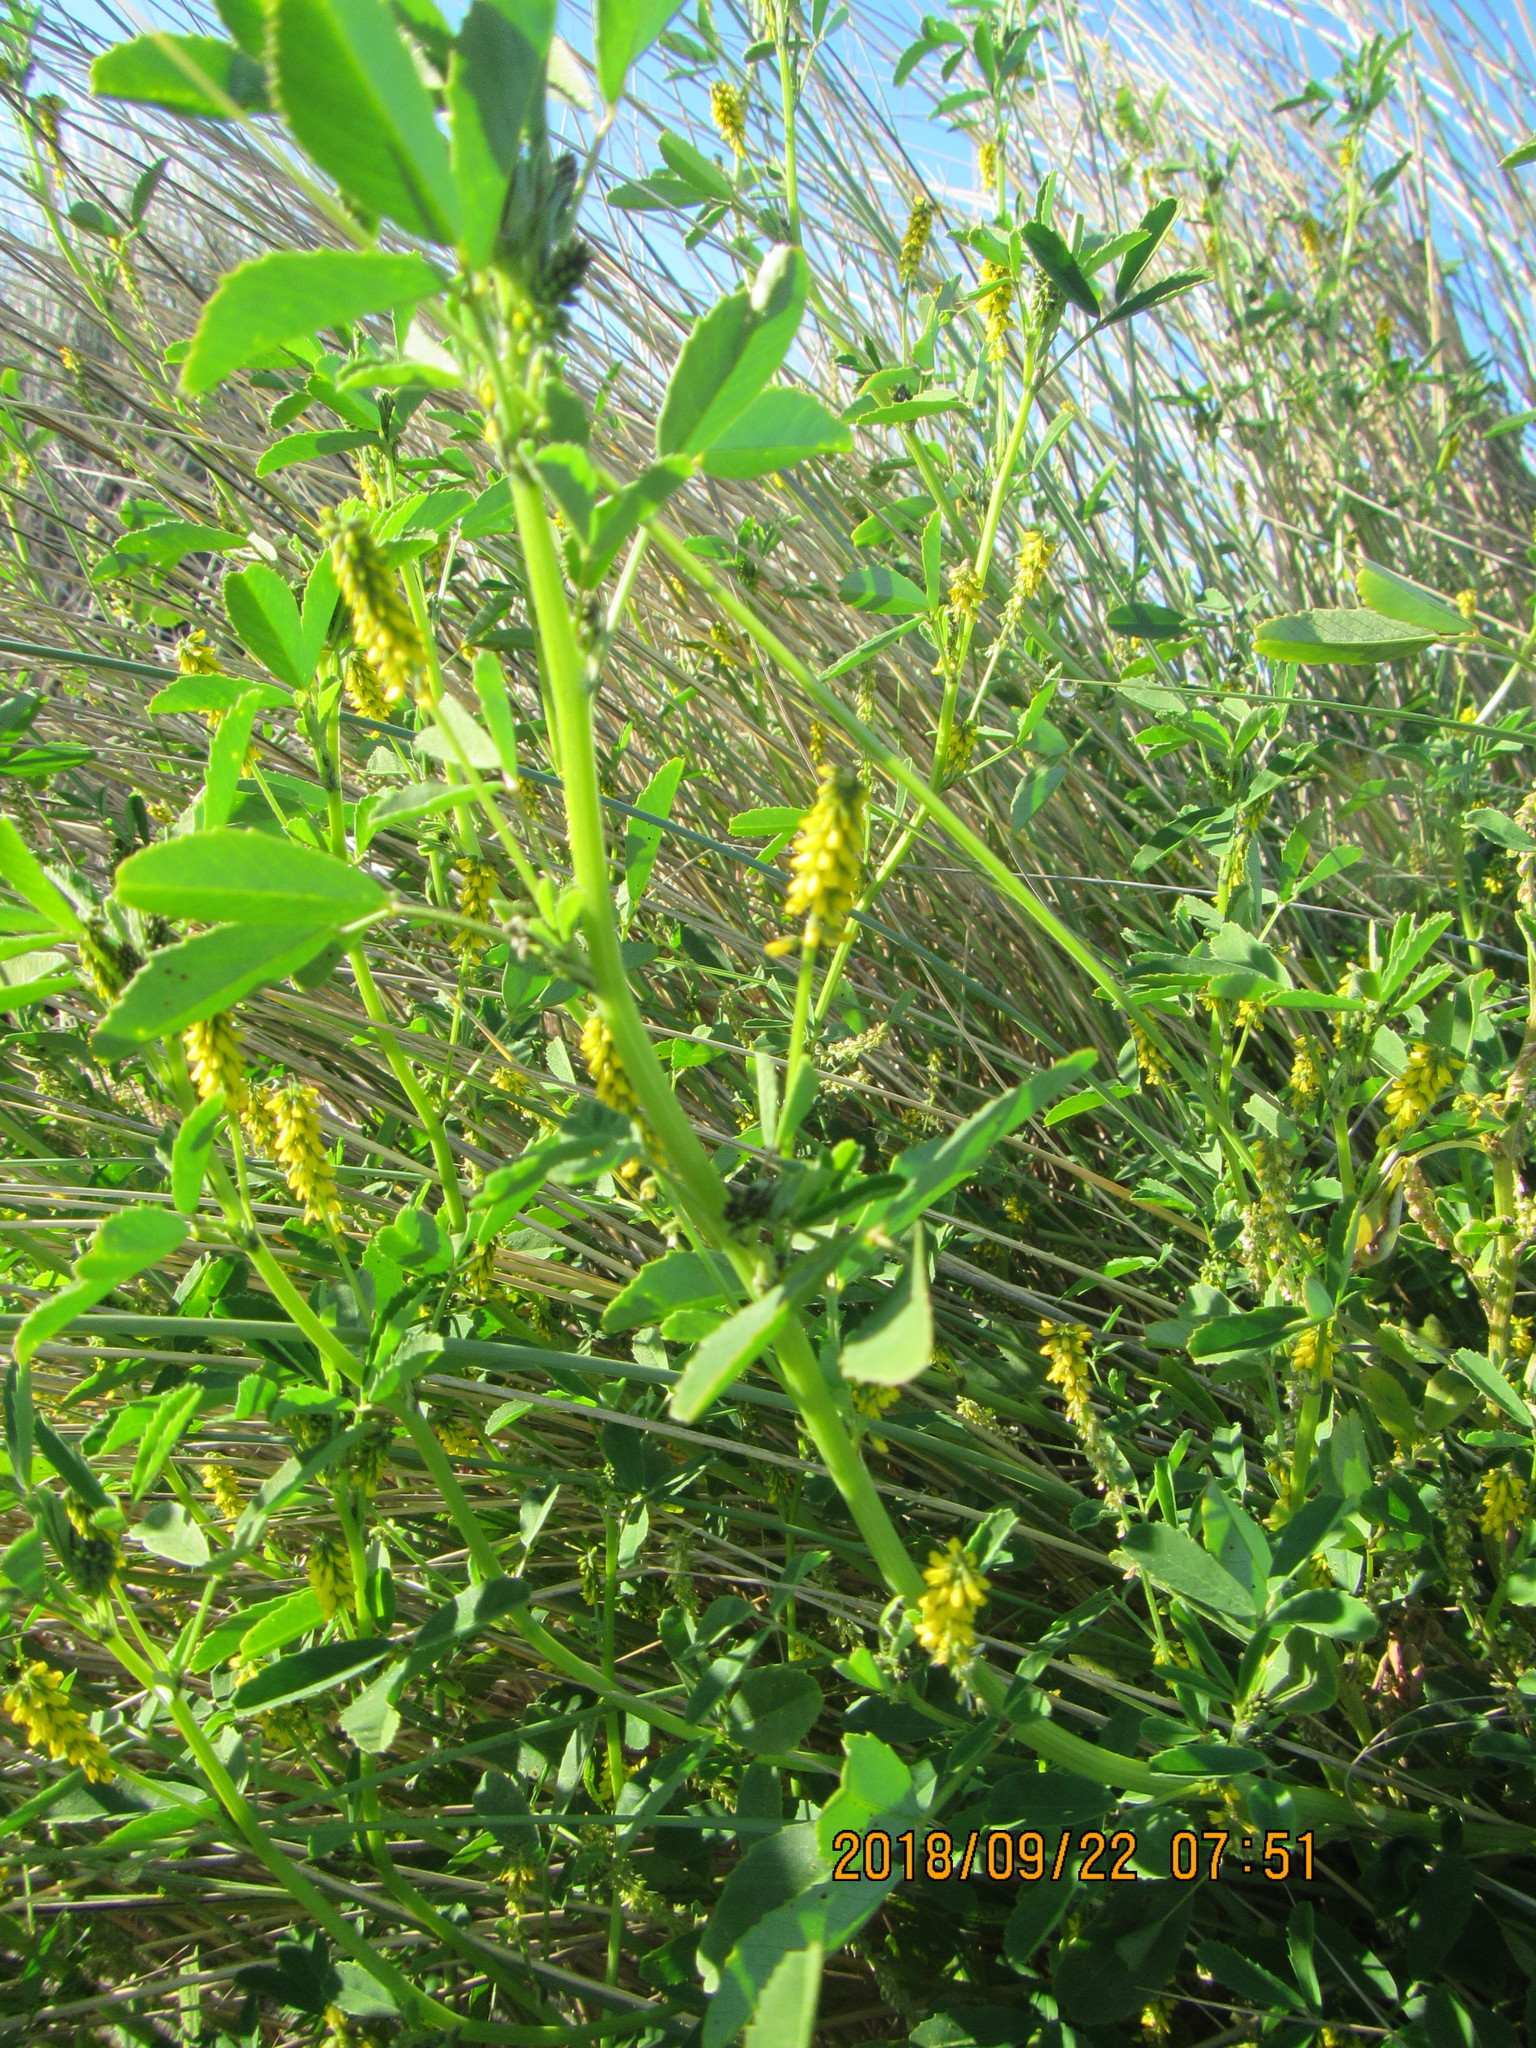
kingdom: Plantae
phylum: Tracheophyta
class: Magnoliopsida
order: Fabales
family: Fabaceae
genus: Melilotus
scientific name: Melilotus indicus
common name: Small melilot
